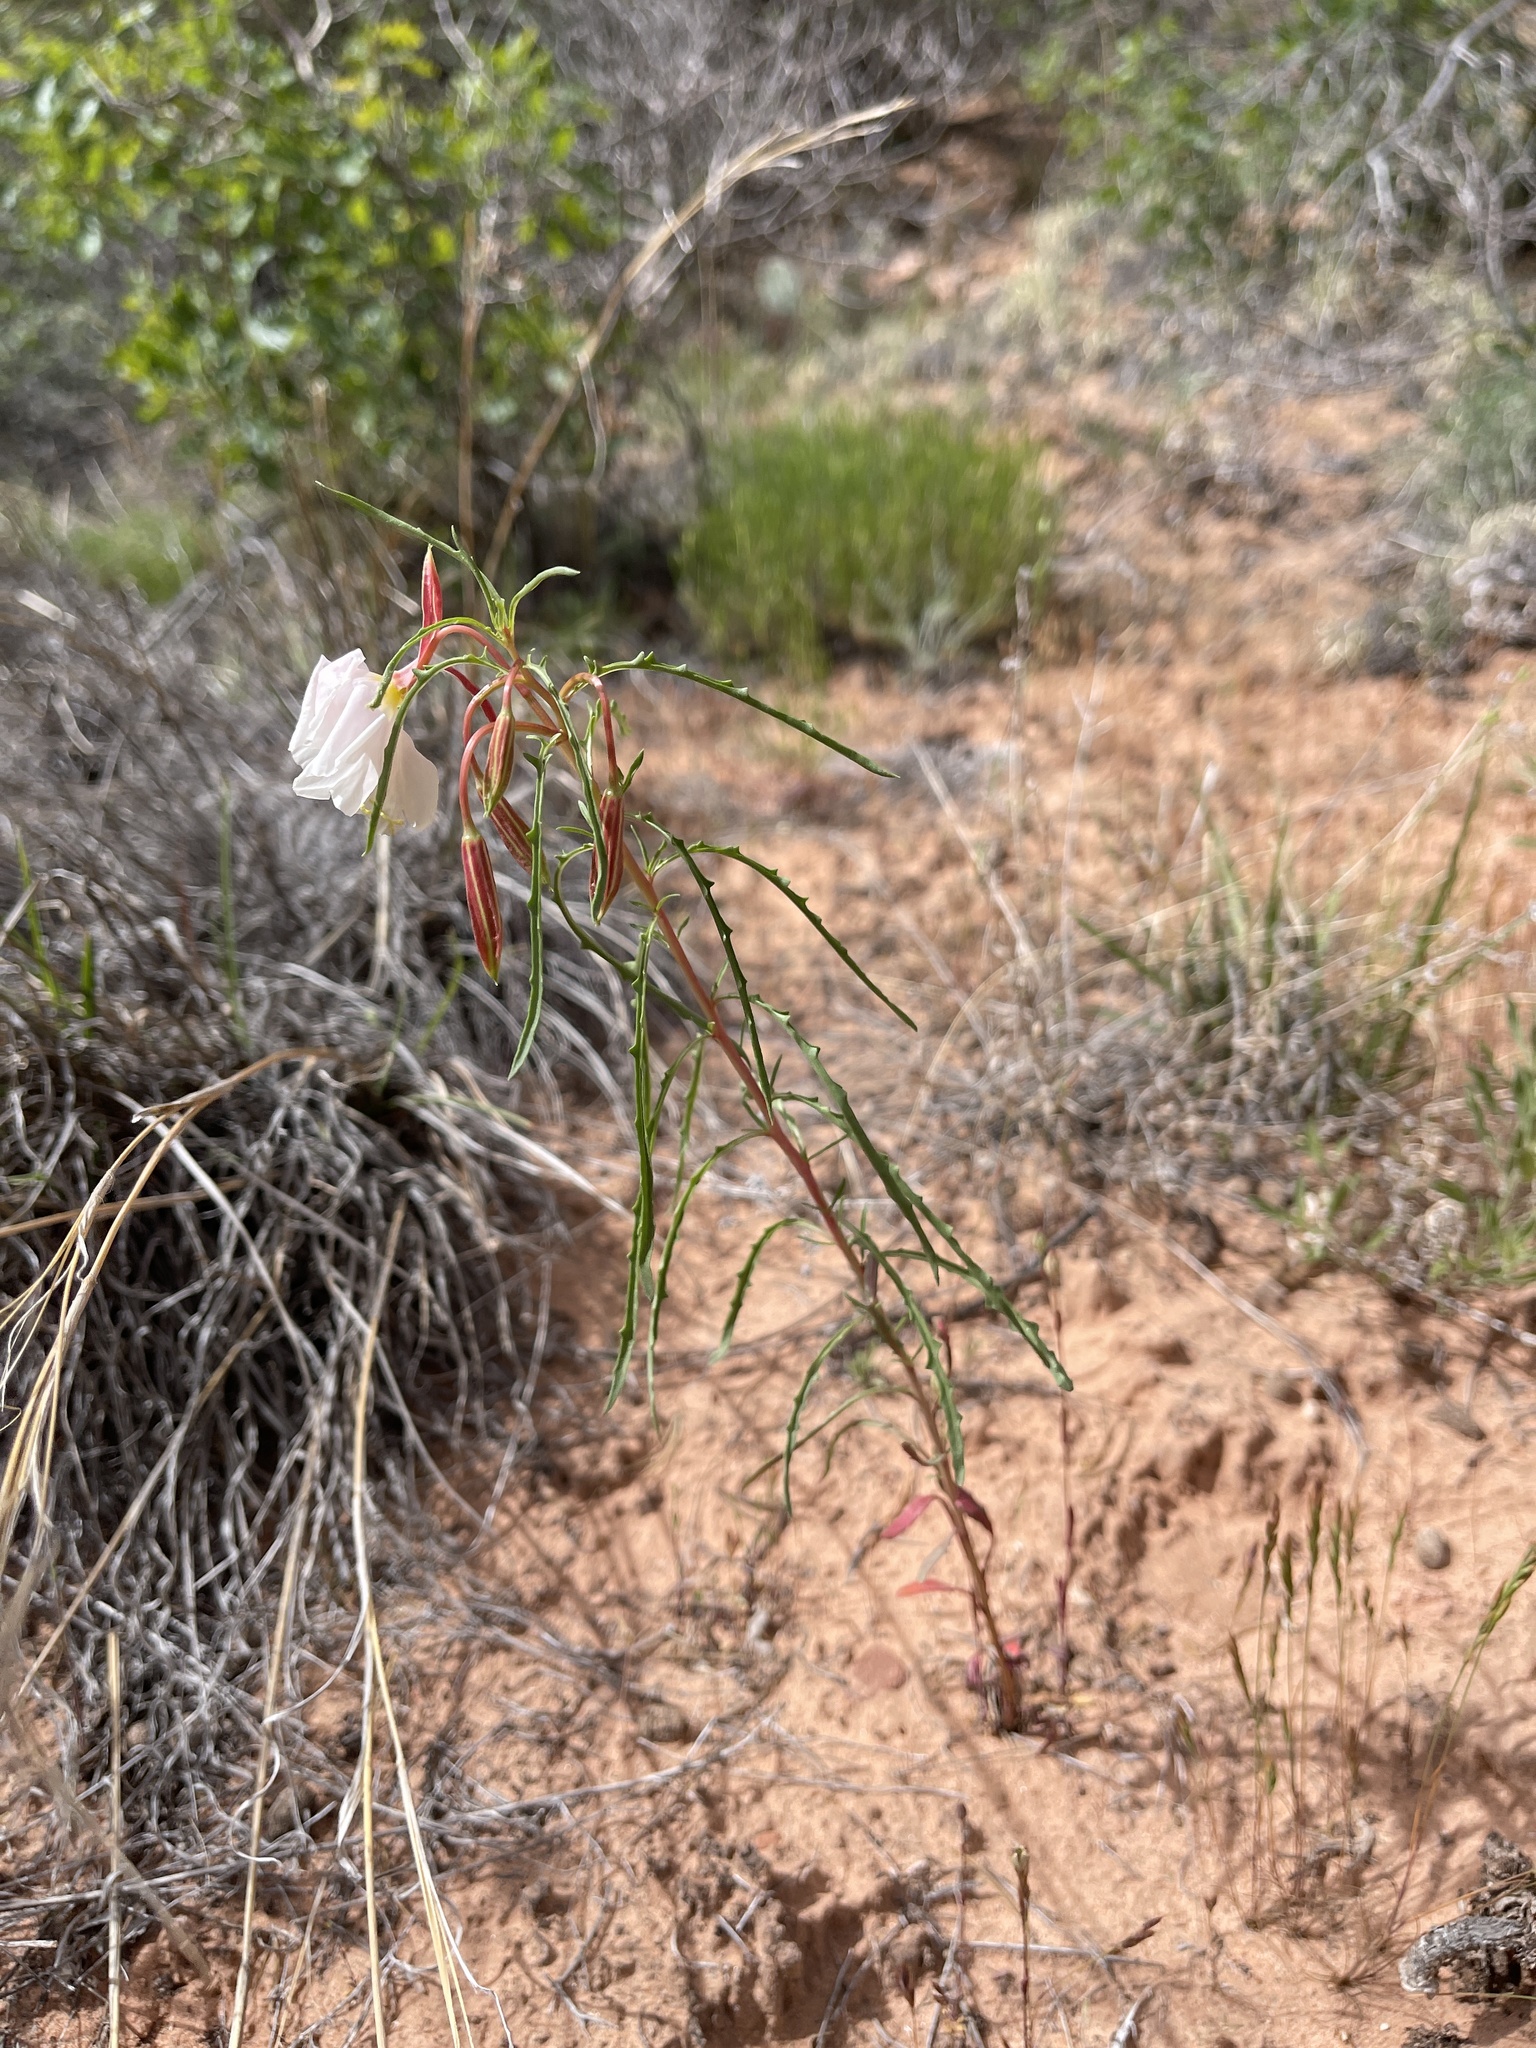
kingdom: Plantae
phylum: Tracheophyta
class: Magnoliopsida
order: Myrtales
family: Onagraceae
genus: Oenothera
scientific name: Oenothera pallida
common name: Pale evening-primrose
